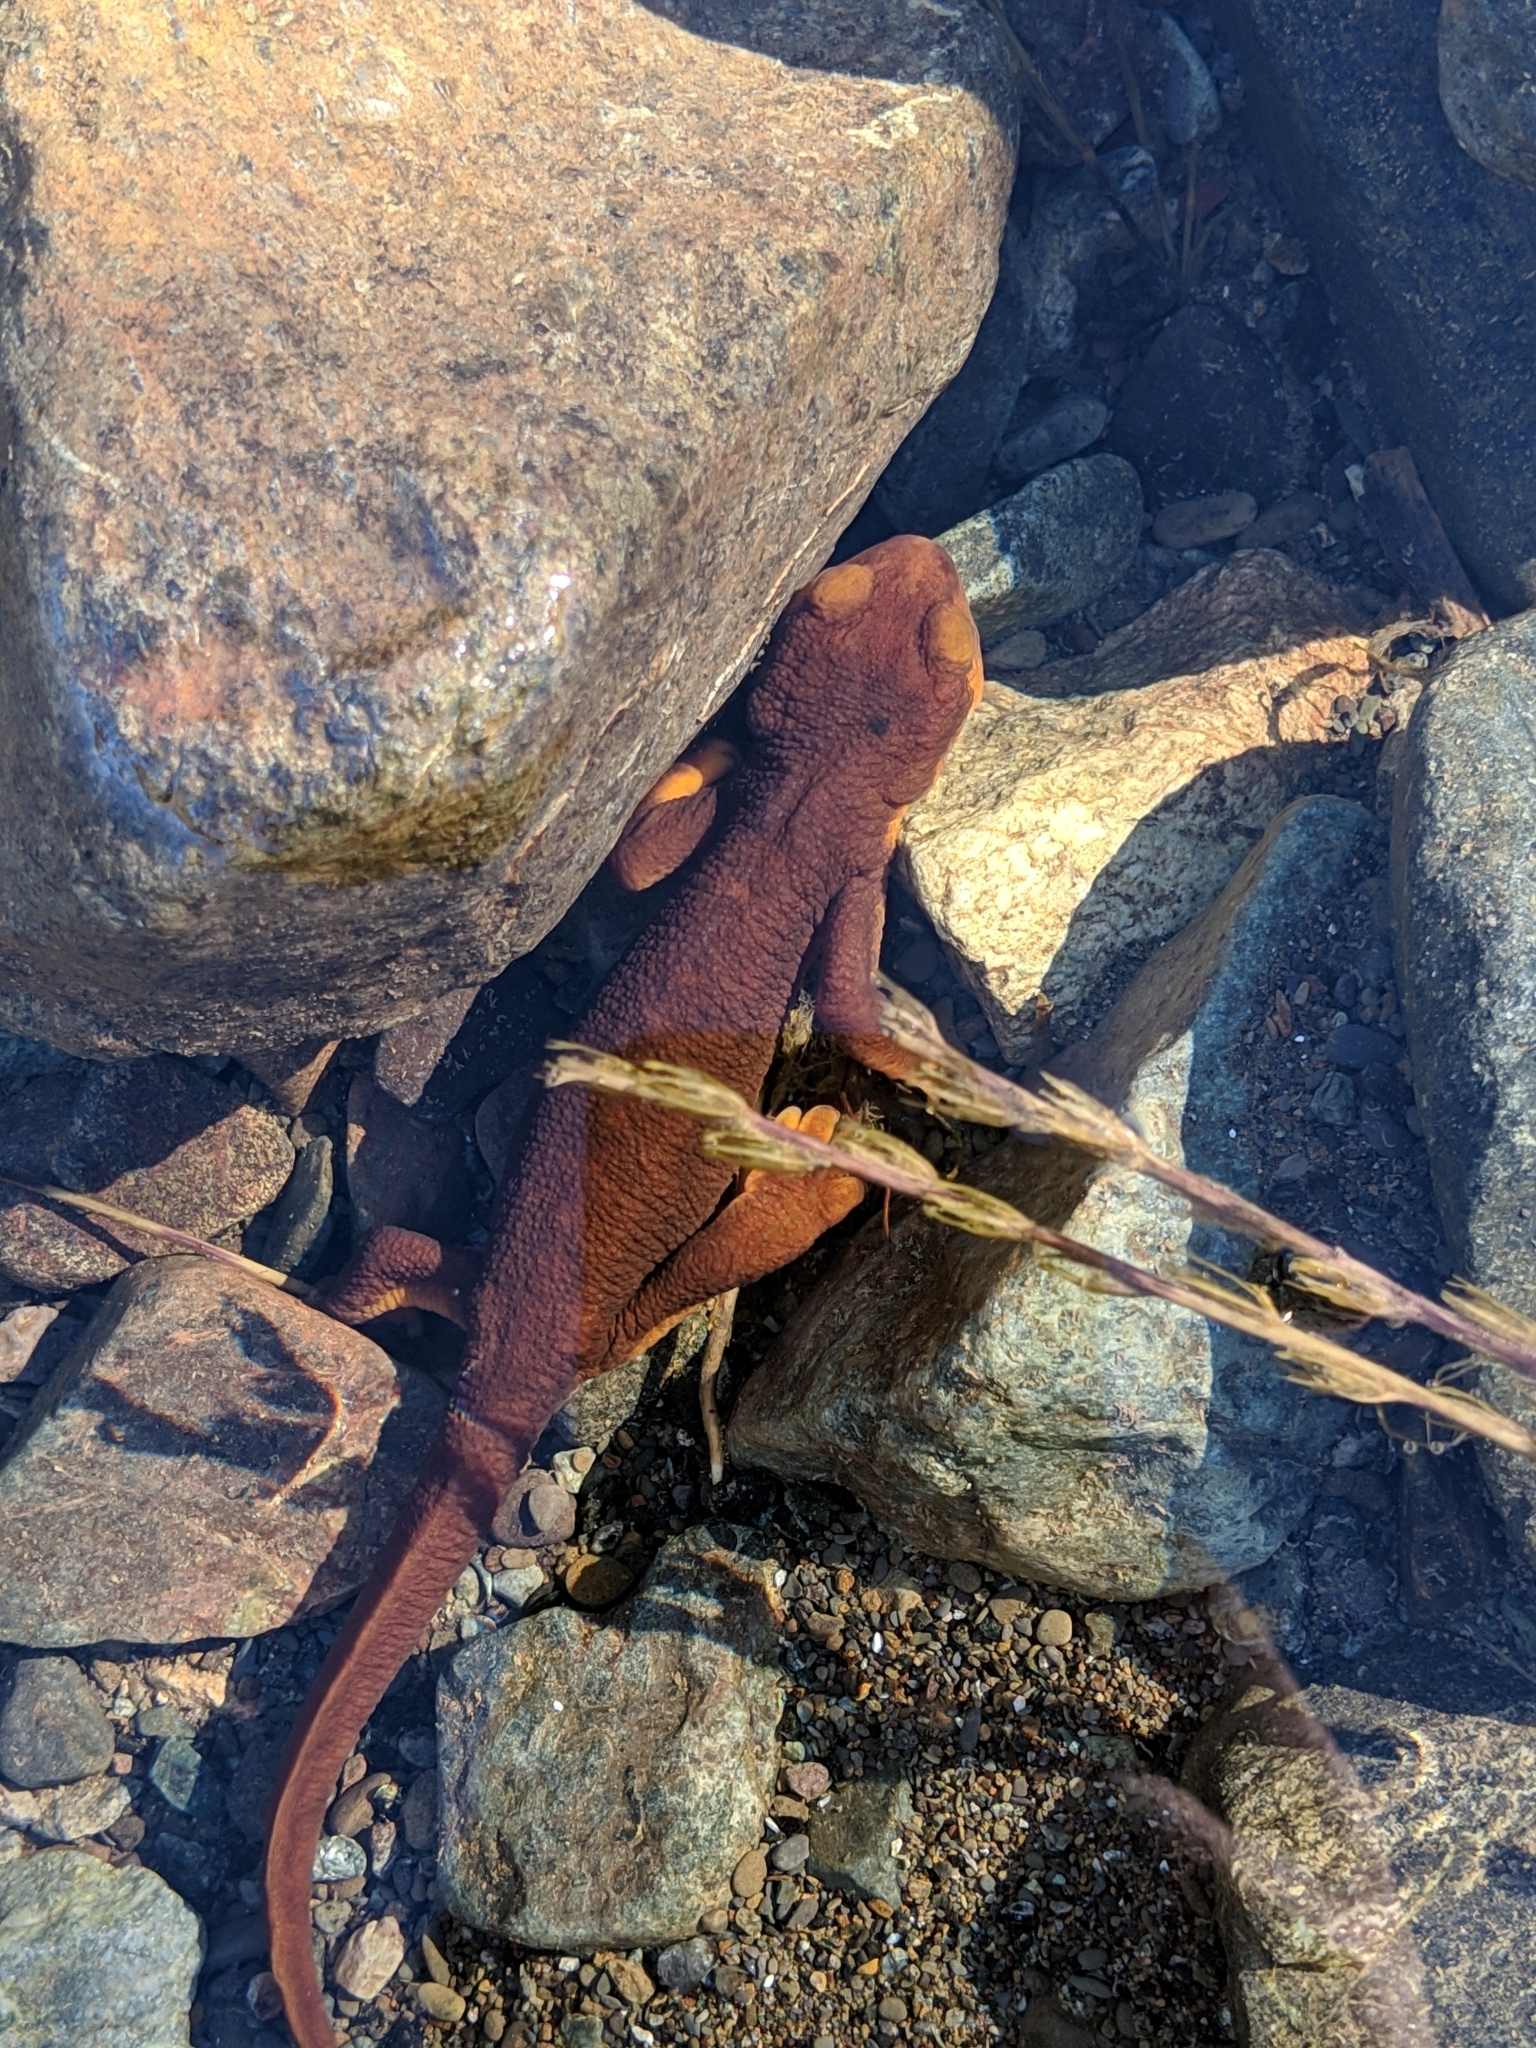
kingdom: Animalia
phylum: Chordata
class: Amphibia
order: Caudata
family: Salamandridae
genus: Taricha
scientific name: Taricha torosa
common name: California newt
